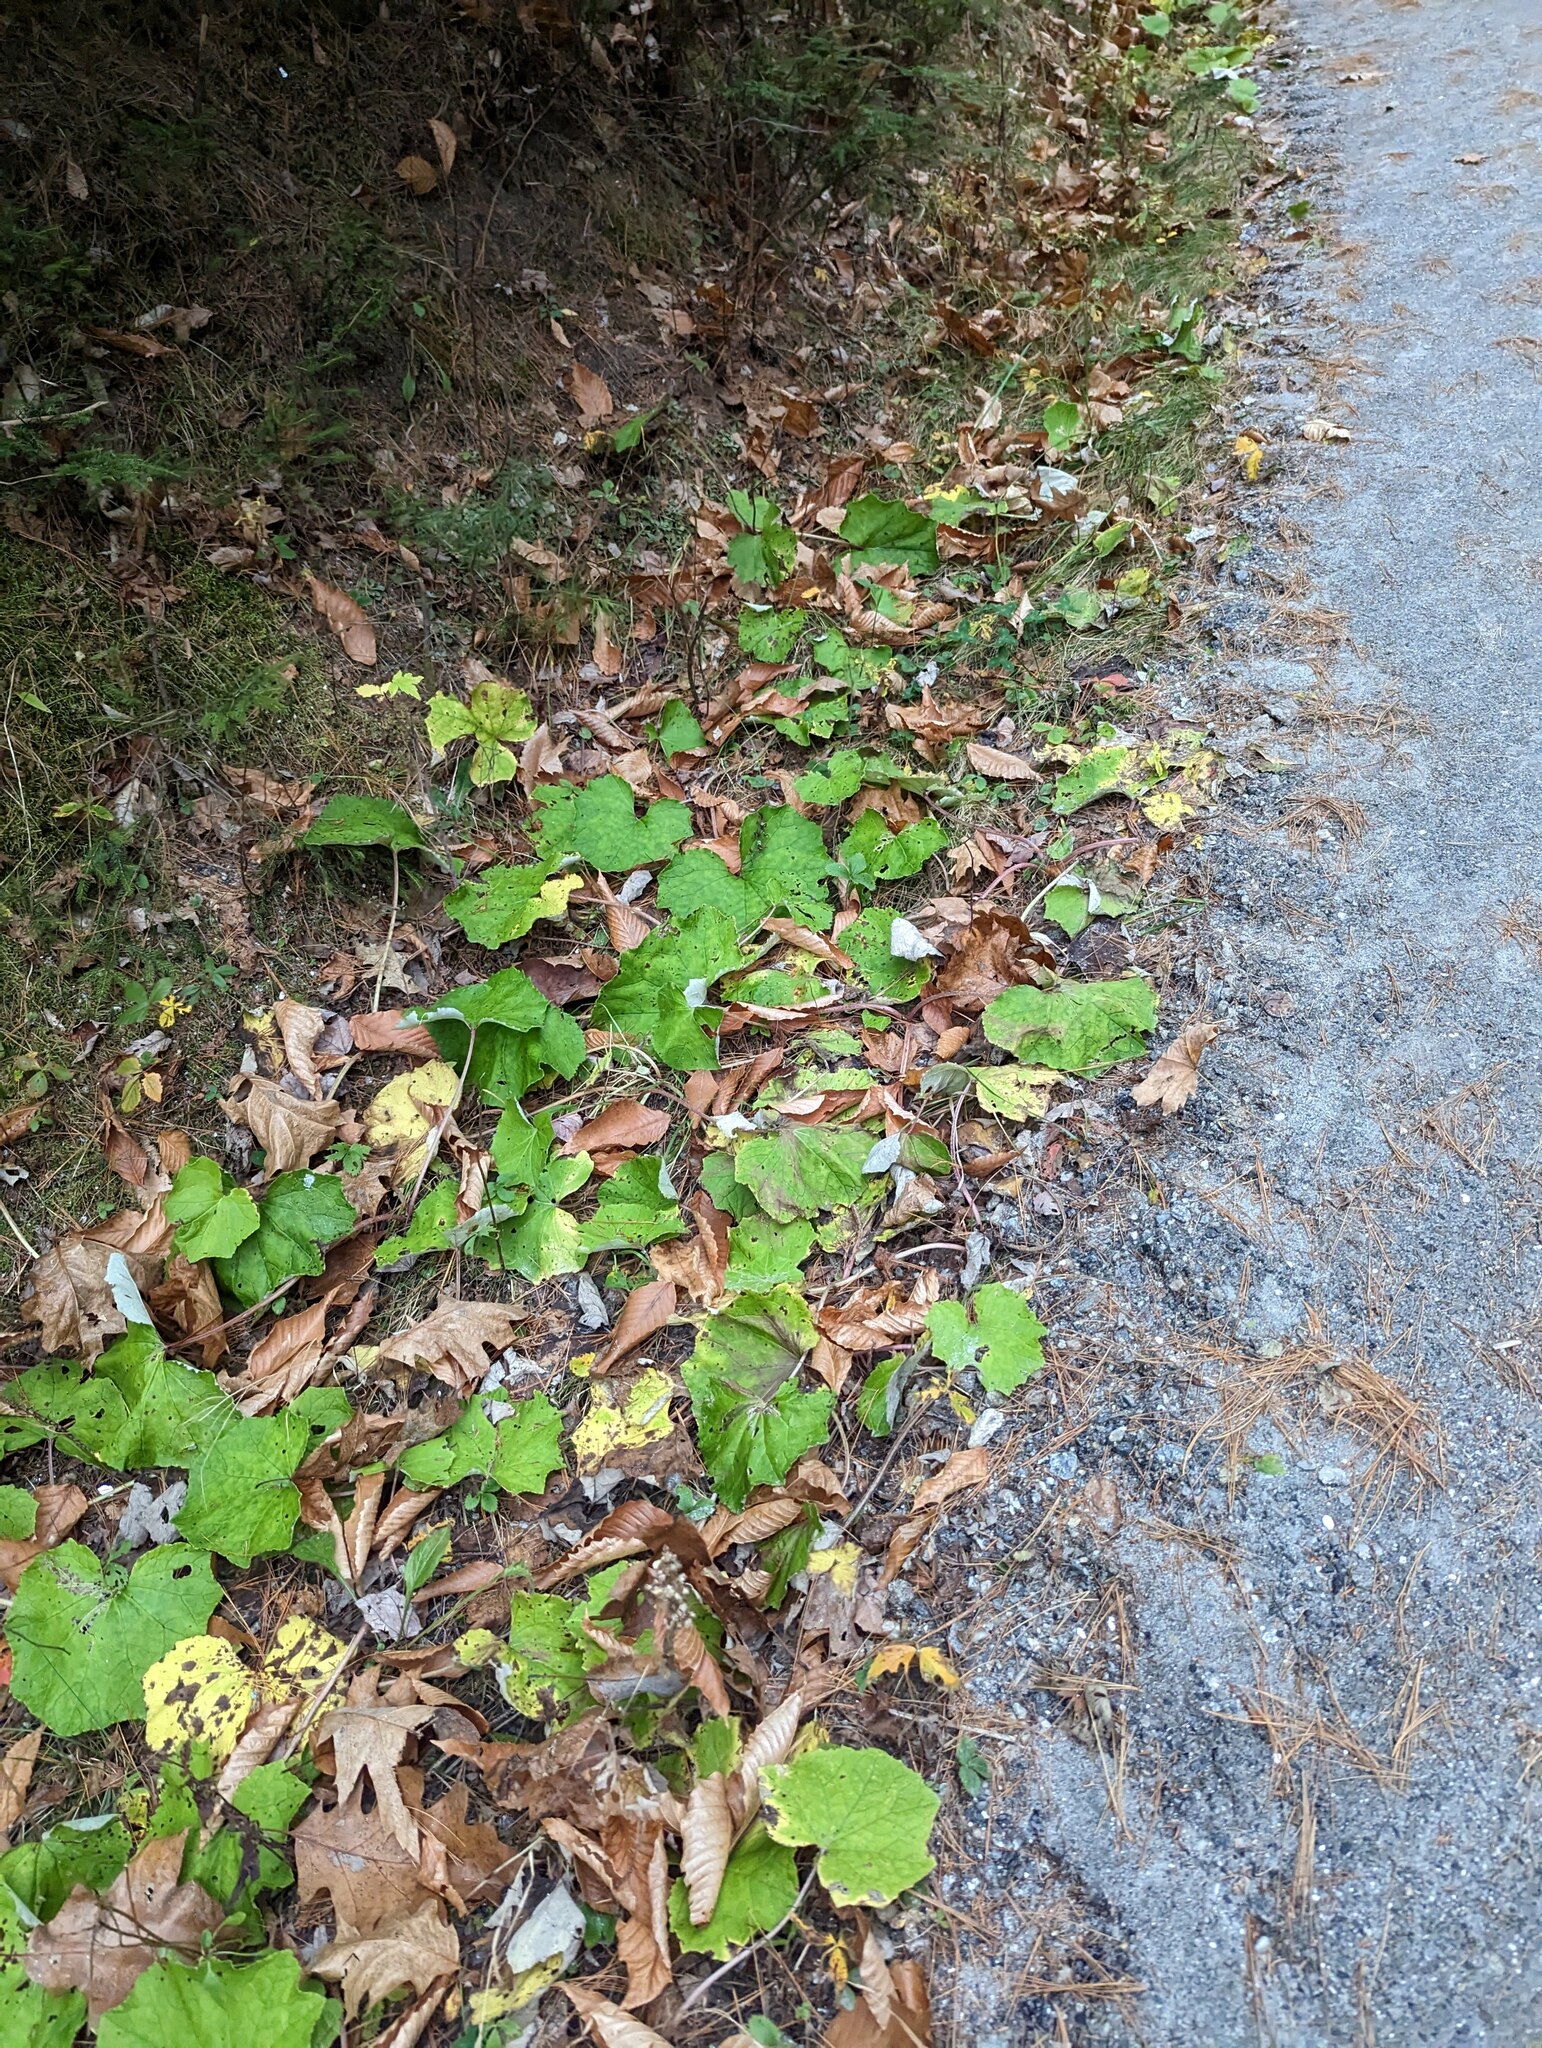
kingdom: Plantae
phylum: Tracheophyta
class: Magnoliopsida
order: Asterales
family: Asteraceae
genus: Tussilago
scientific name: Tussilago farfara
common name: Coltsfoot
